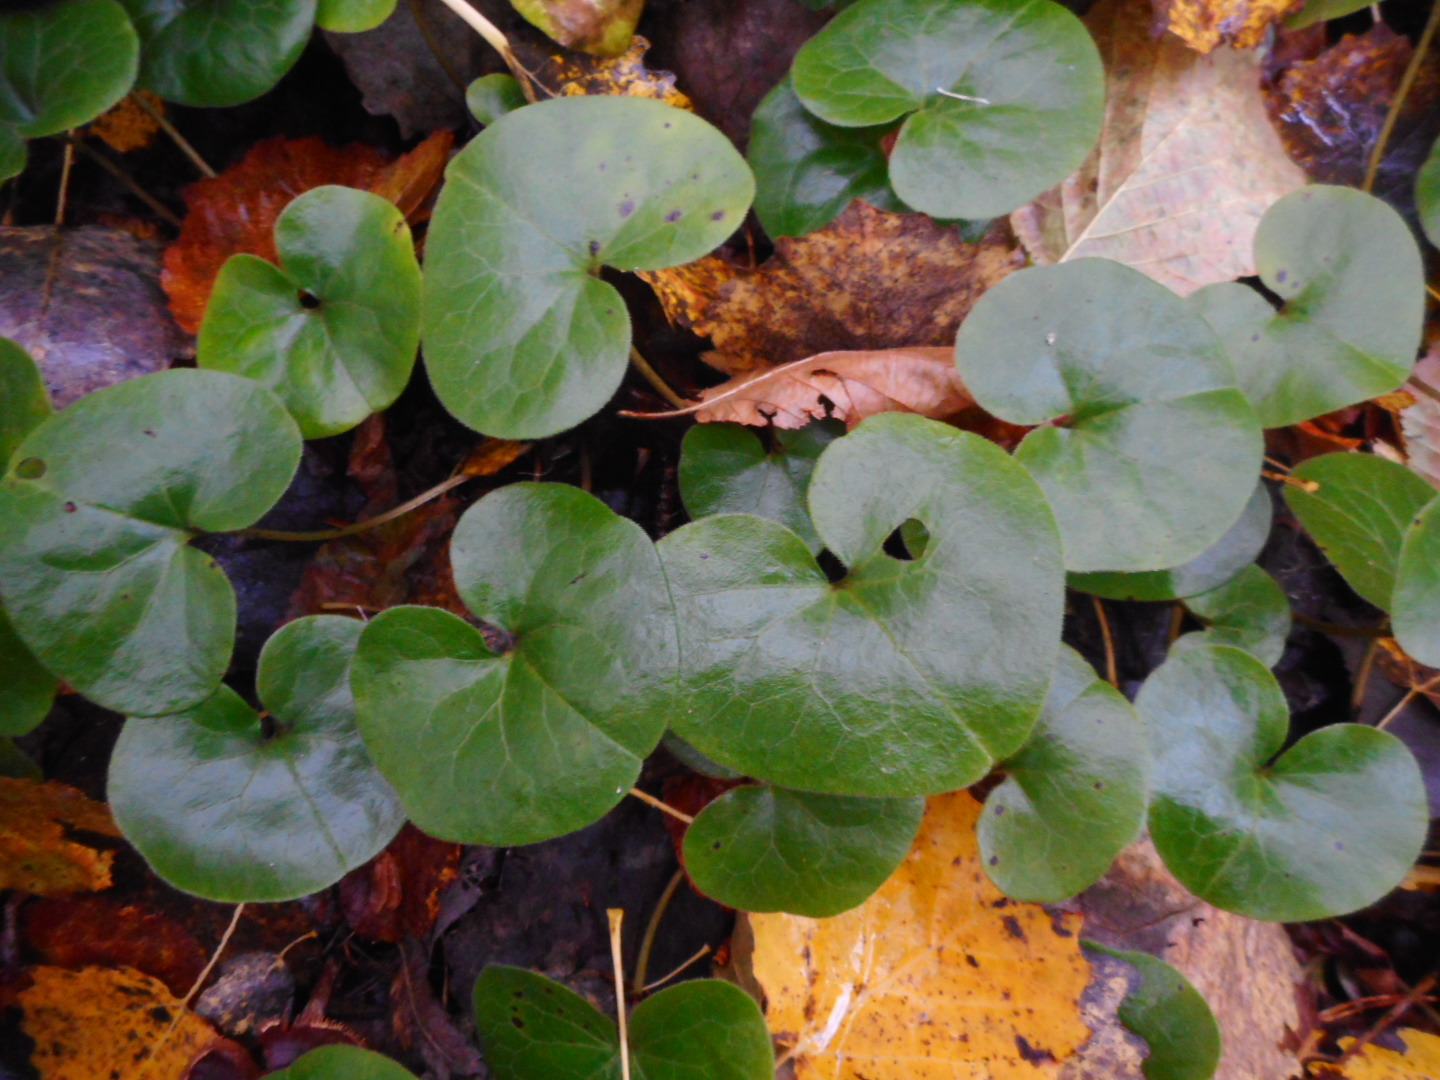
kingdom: Plantae
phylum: Tracheophyta
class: Magnoliopsida
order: Piperales
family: Aristolochiaceae
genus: Asarum
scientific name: Asarum europaeum
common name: Asarabacca
